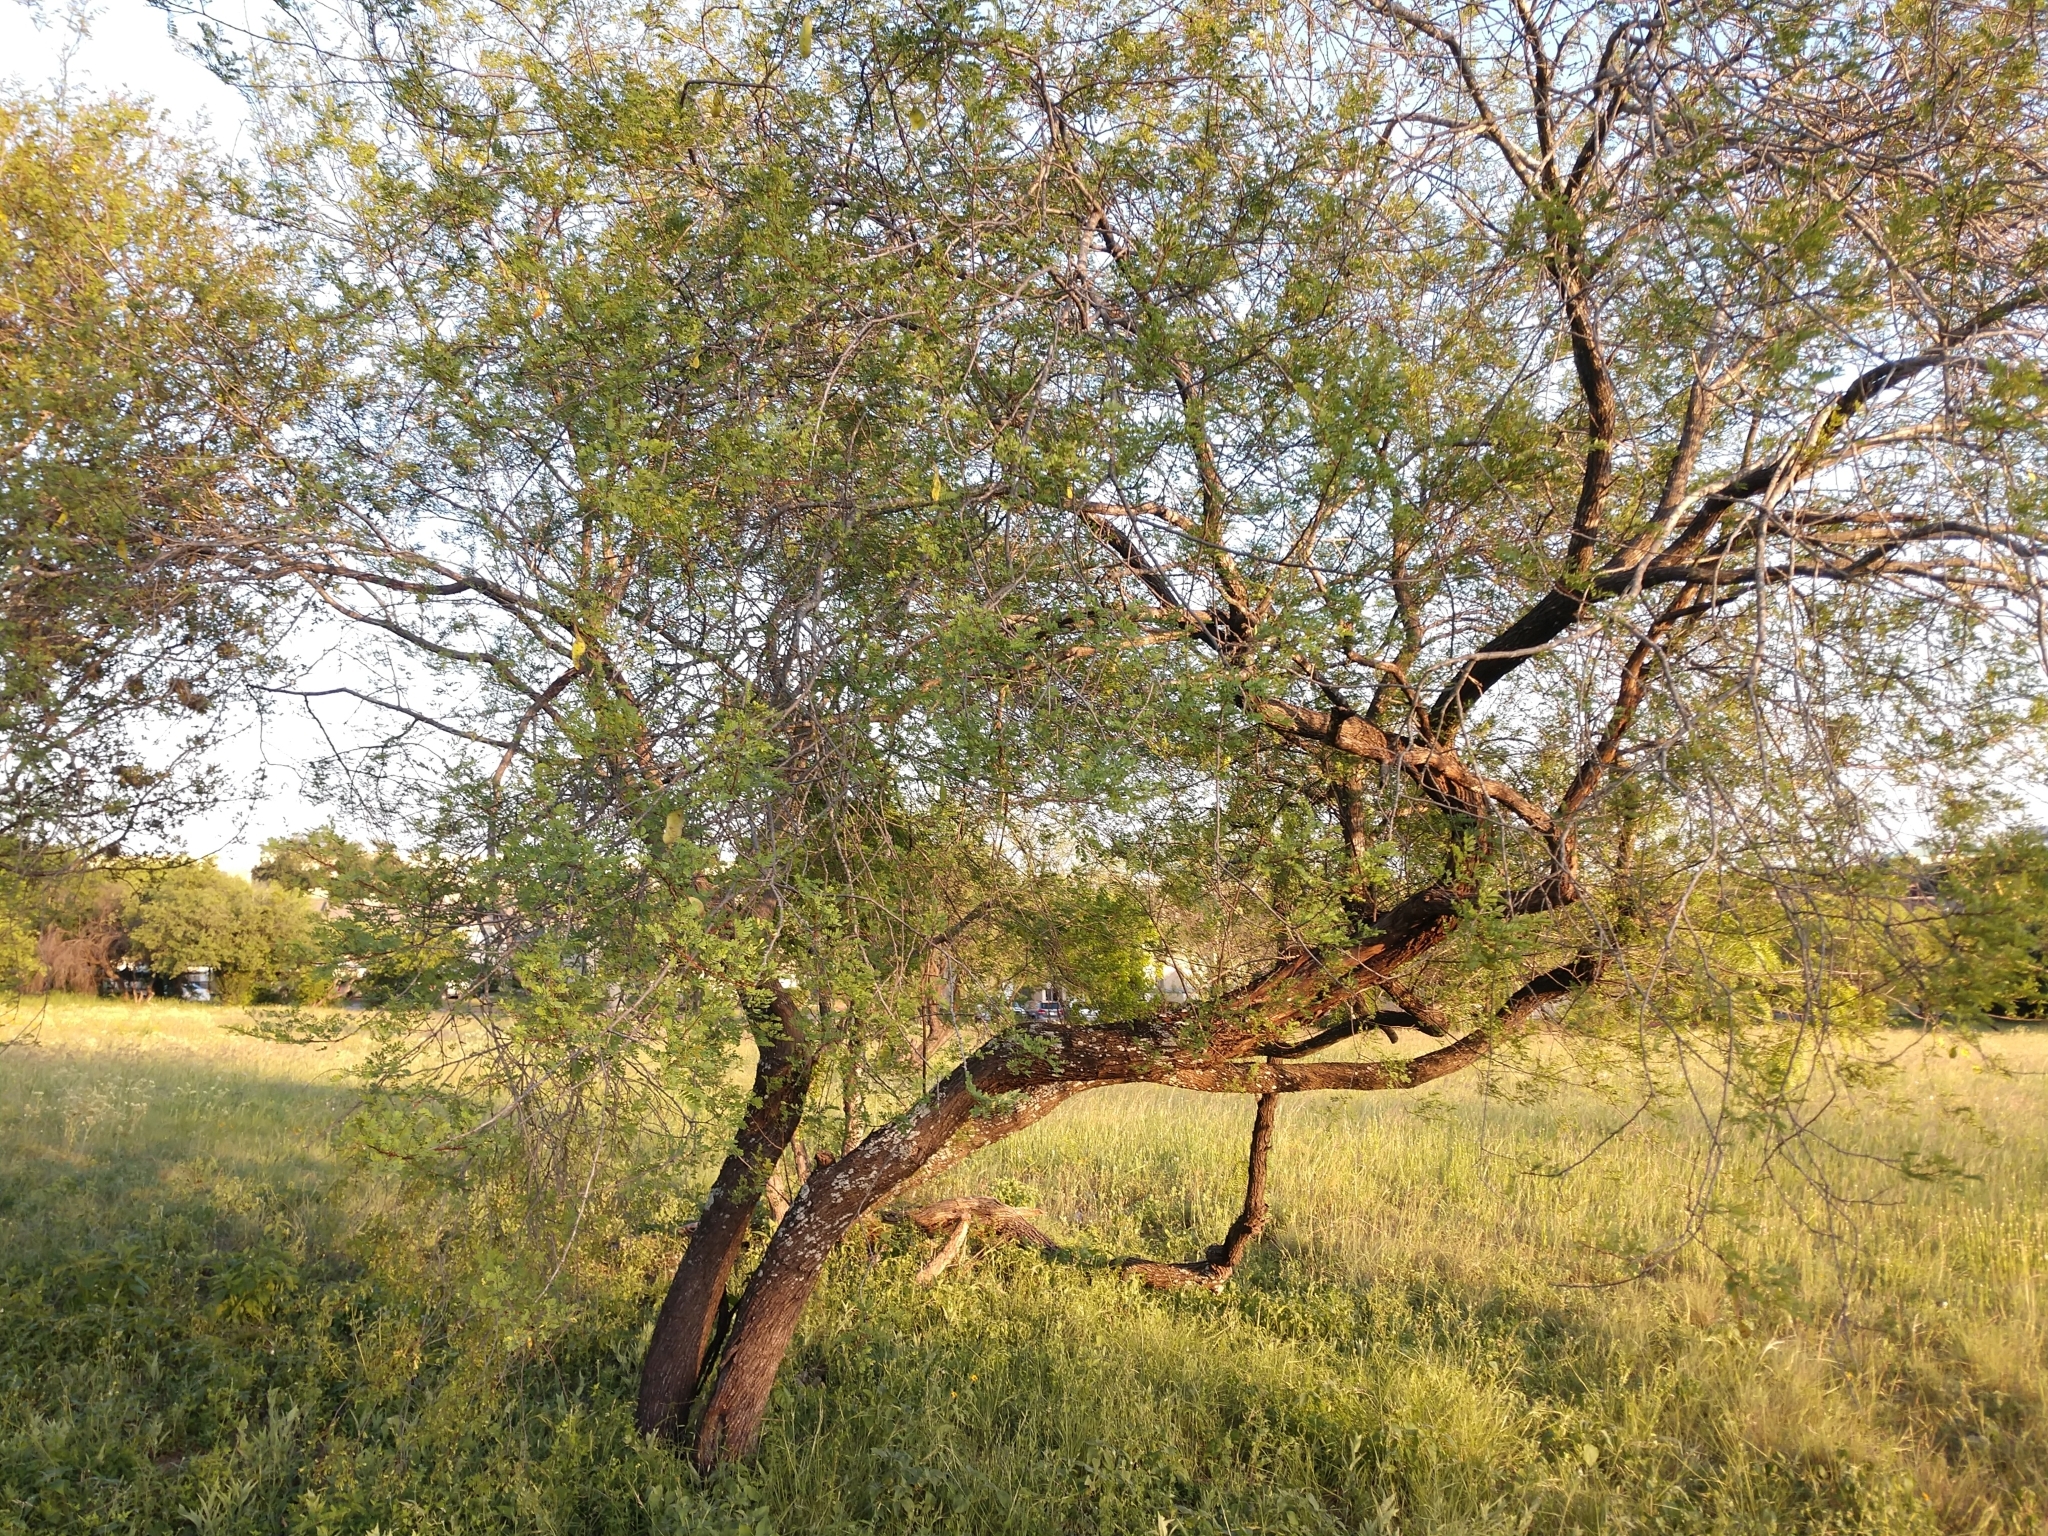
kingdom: Plantae
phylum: Tracheophyta
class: Magnoliopsida
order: Fabales
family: Fabaceae
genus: Senegalia
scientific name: Senegalia roemeriana
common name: Roemer's acacia
